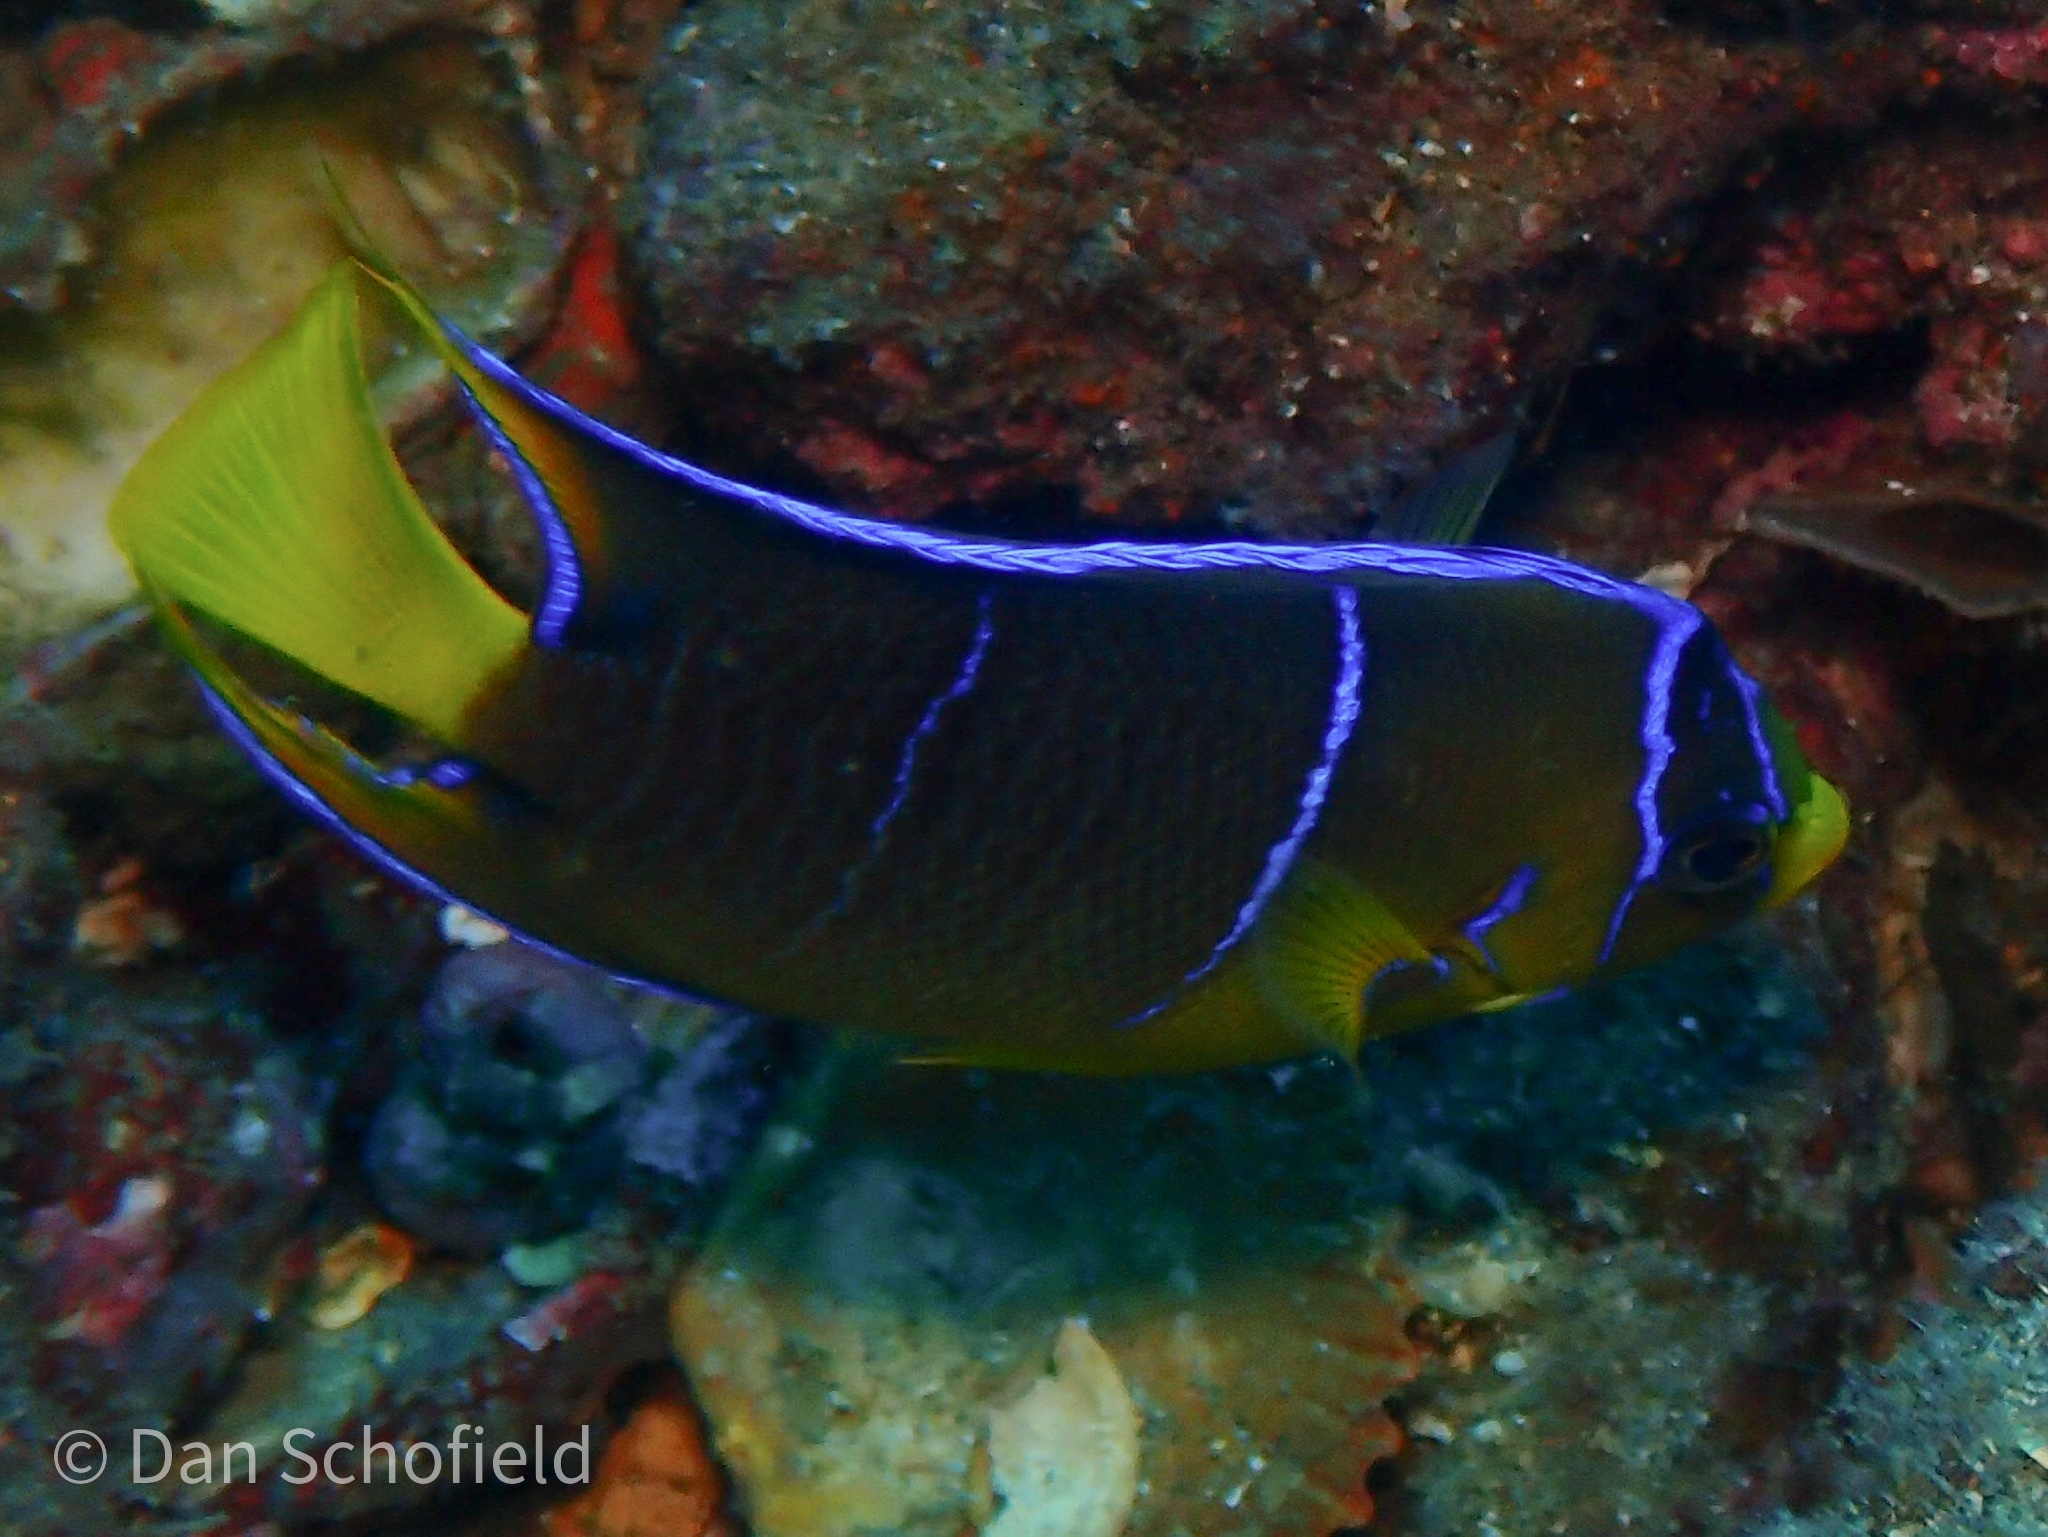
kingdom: Animalia
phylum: Chordata
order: Perciformes
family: Pomacanthidae
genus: Holacanthus
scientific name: Holacanthus ciliaris
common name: Queen angelfish
